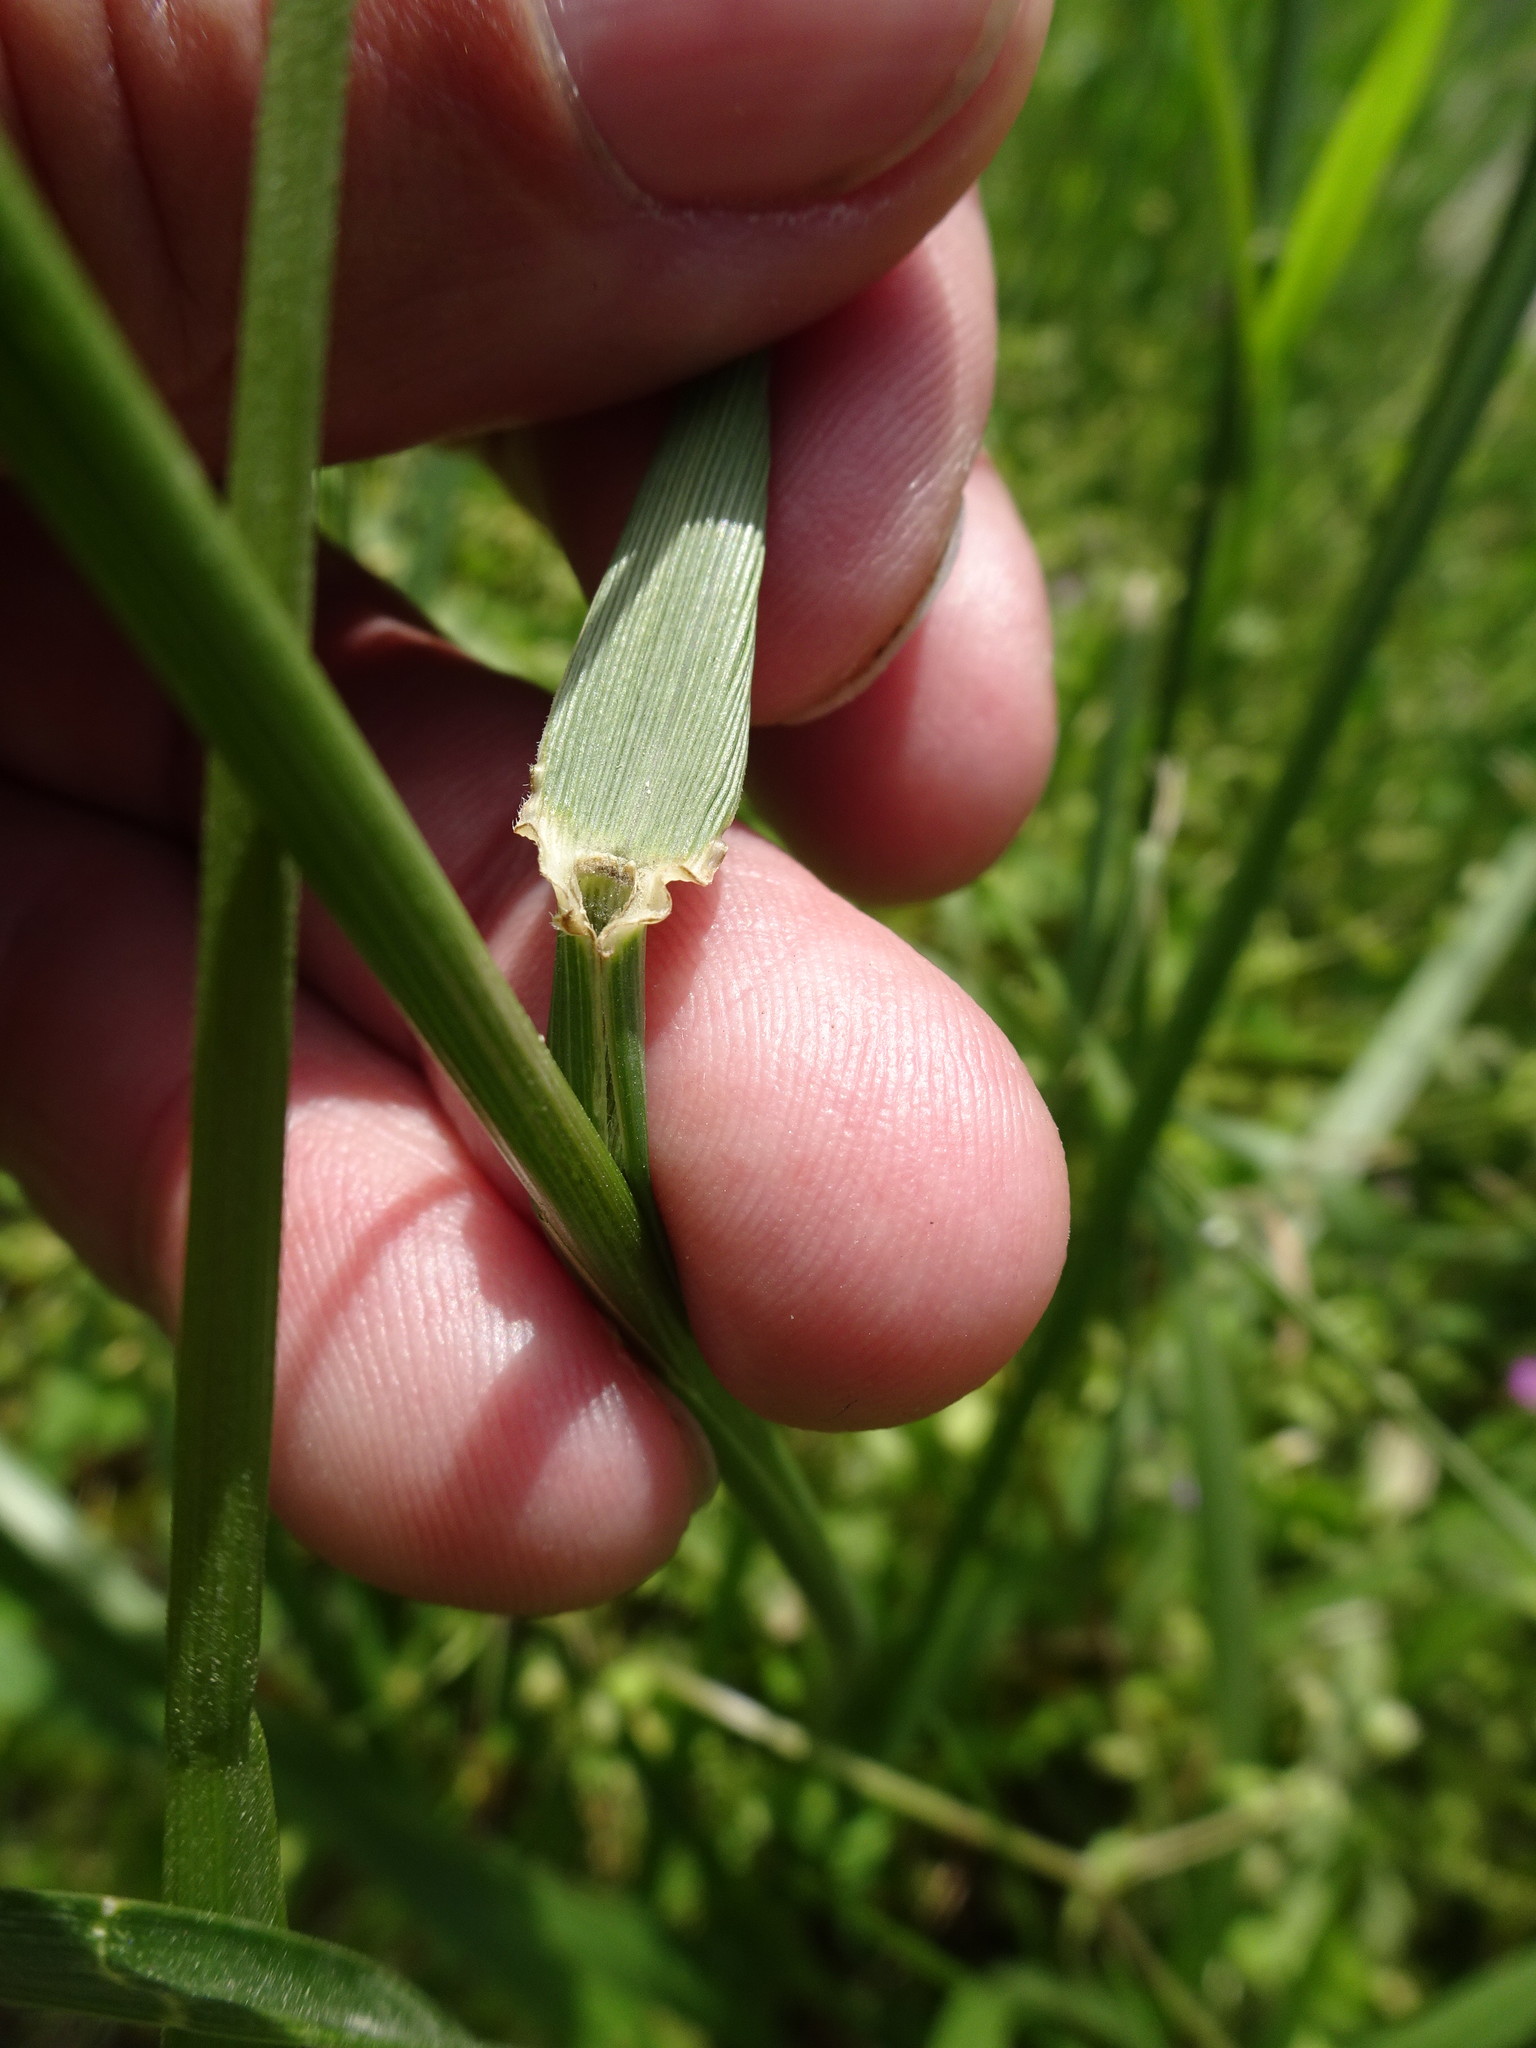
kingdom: Plantae
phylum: Tracheophyta
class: Liliopsida
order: Poales
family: Poaceae
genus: Lolium
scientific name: Lolium arundinaceum
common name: Reed fescue
